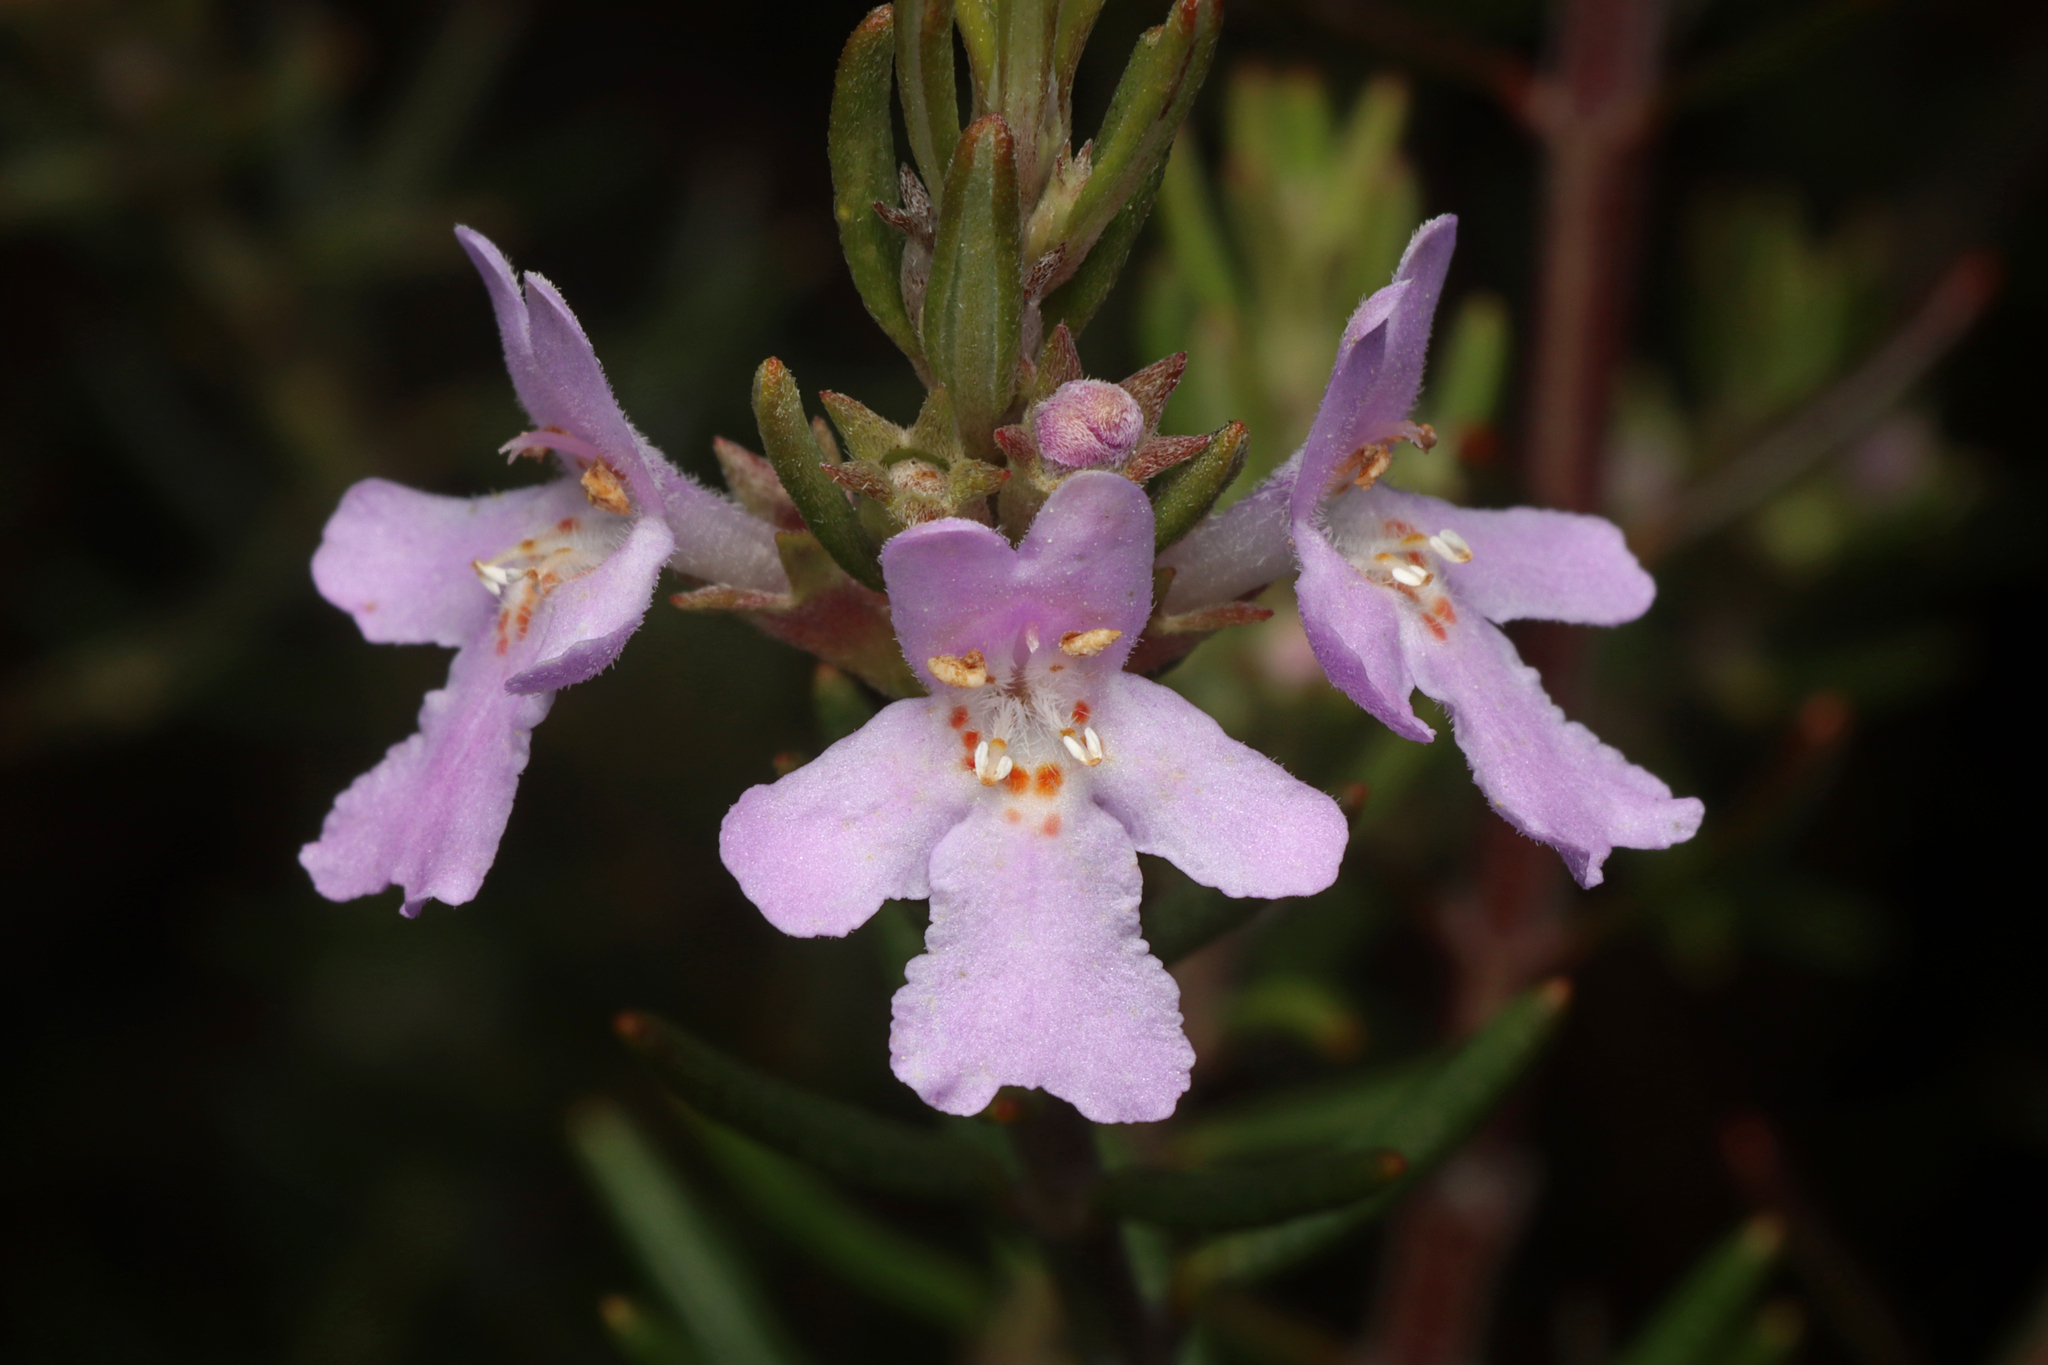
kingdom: Plantae
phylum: Tracheophyta
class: Magnoliopsida
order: Lamiales
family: Lamiaceae
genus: Westringia
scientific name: Westringia eremicola
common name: Slender western-rosemary
